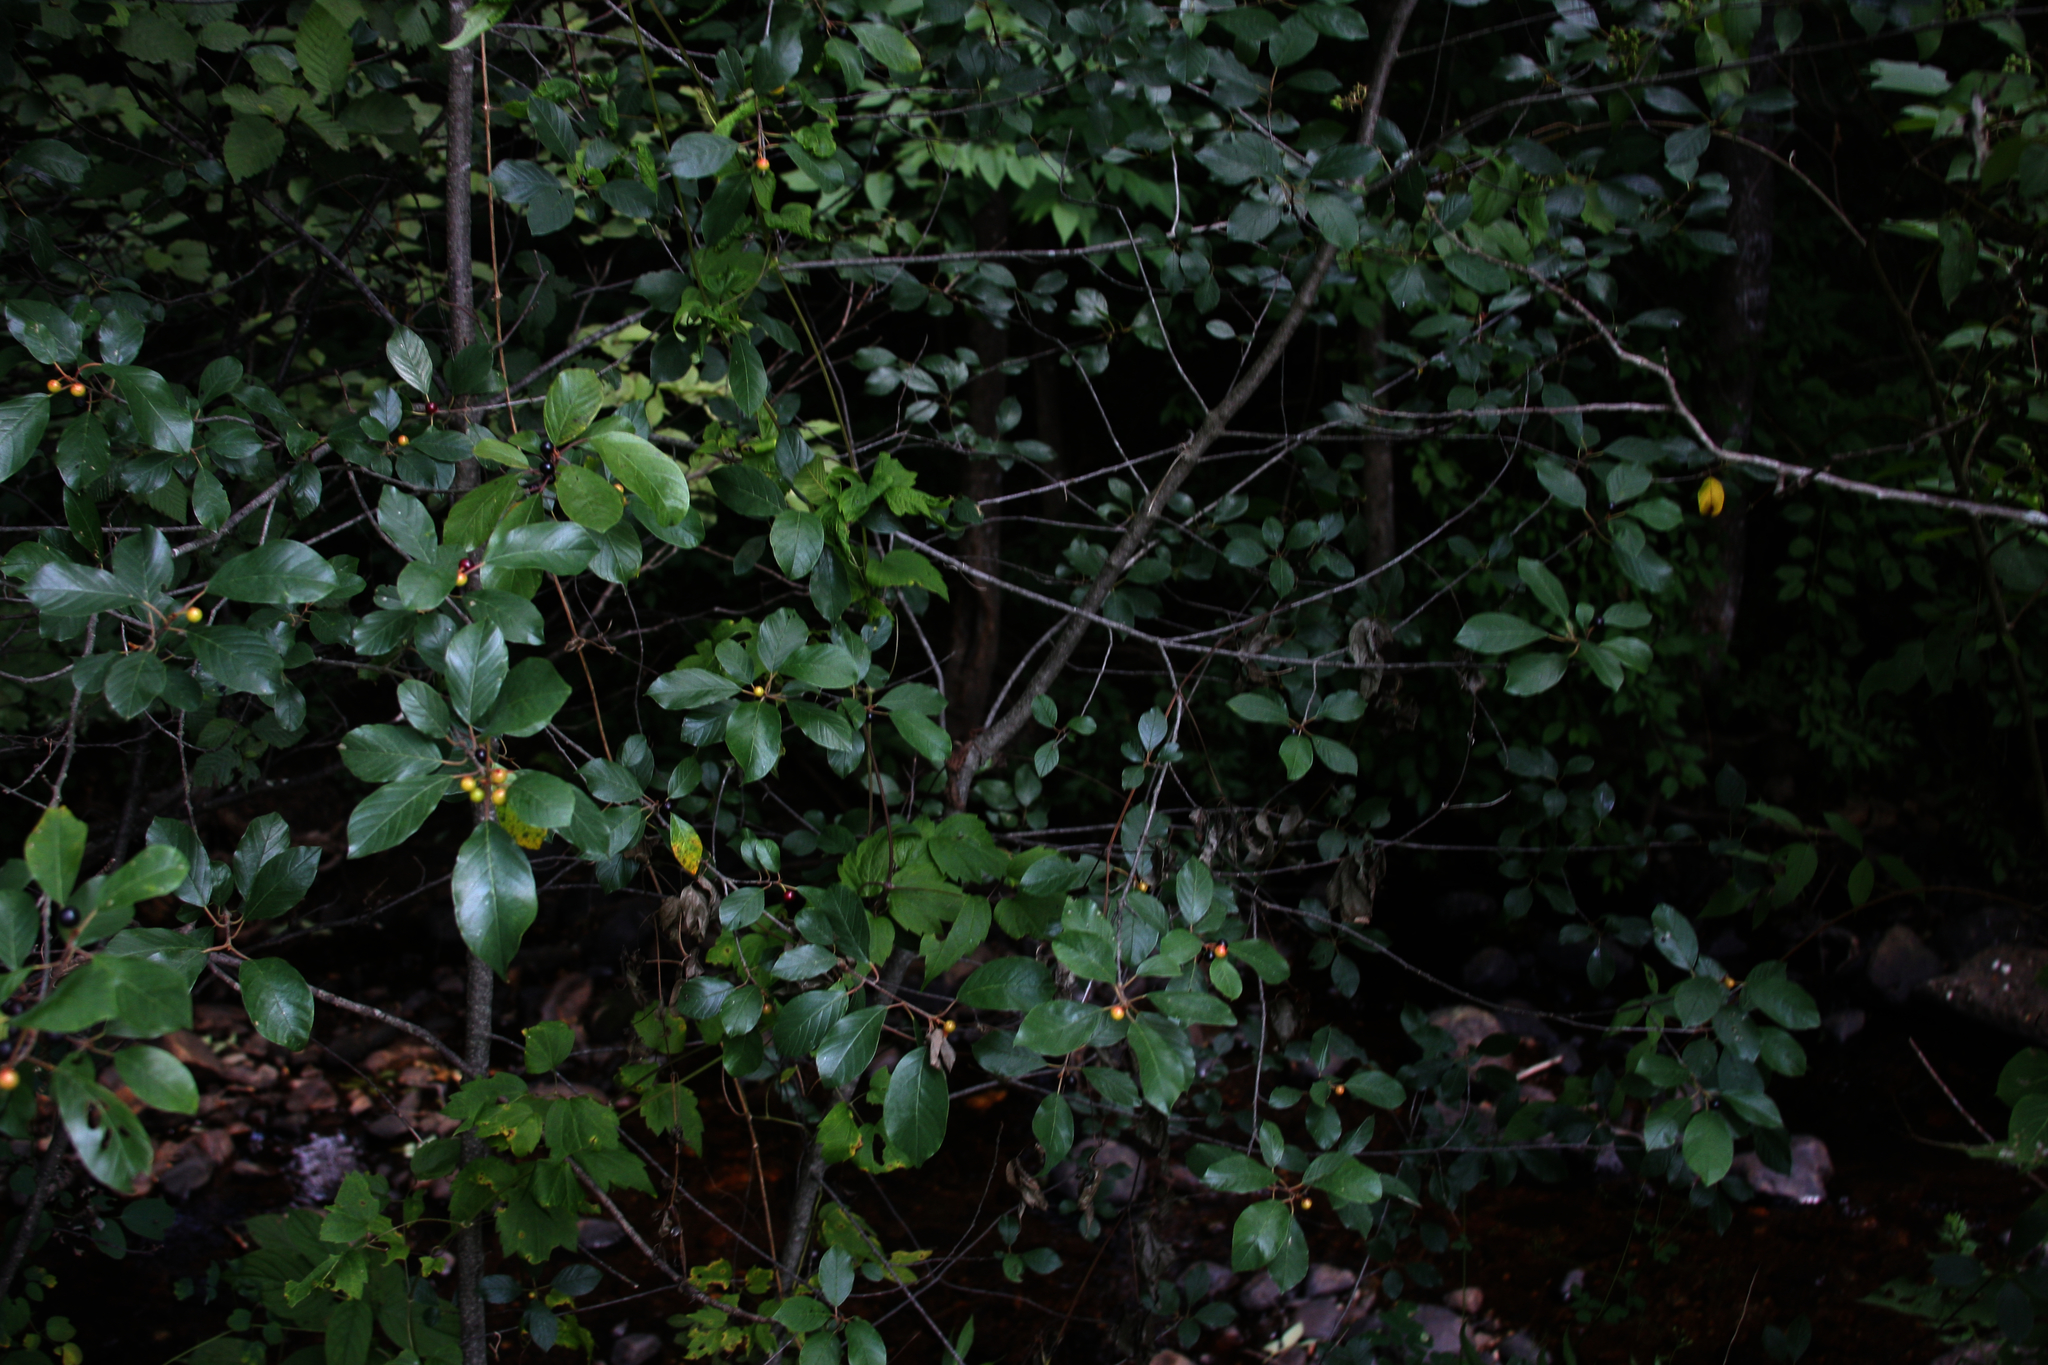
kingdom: Plantae
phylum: Tracheophyta
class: Magnoliopsida
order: Rosales
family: Rhamnaceae
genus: Frangula
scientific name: Frangula alnus
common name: Alder buckthorn
